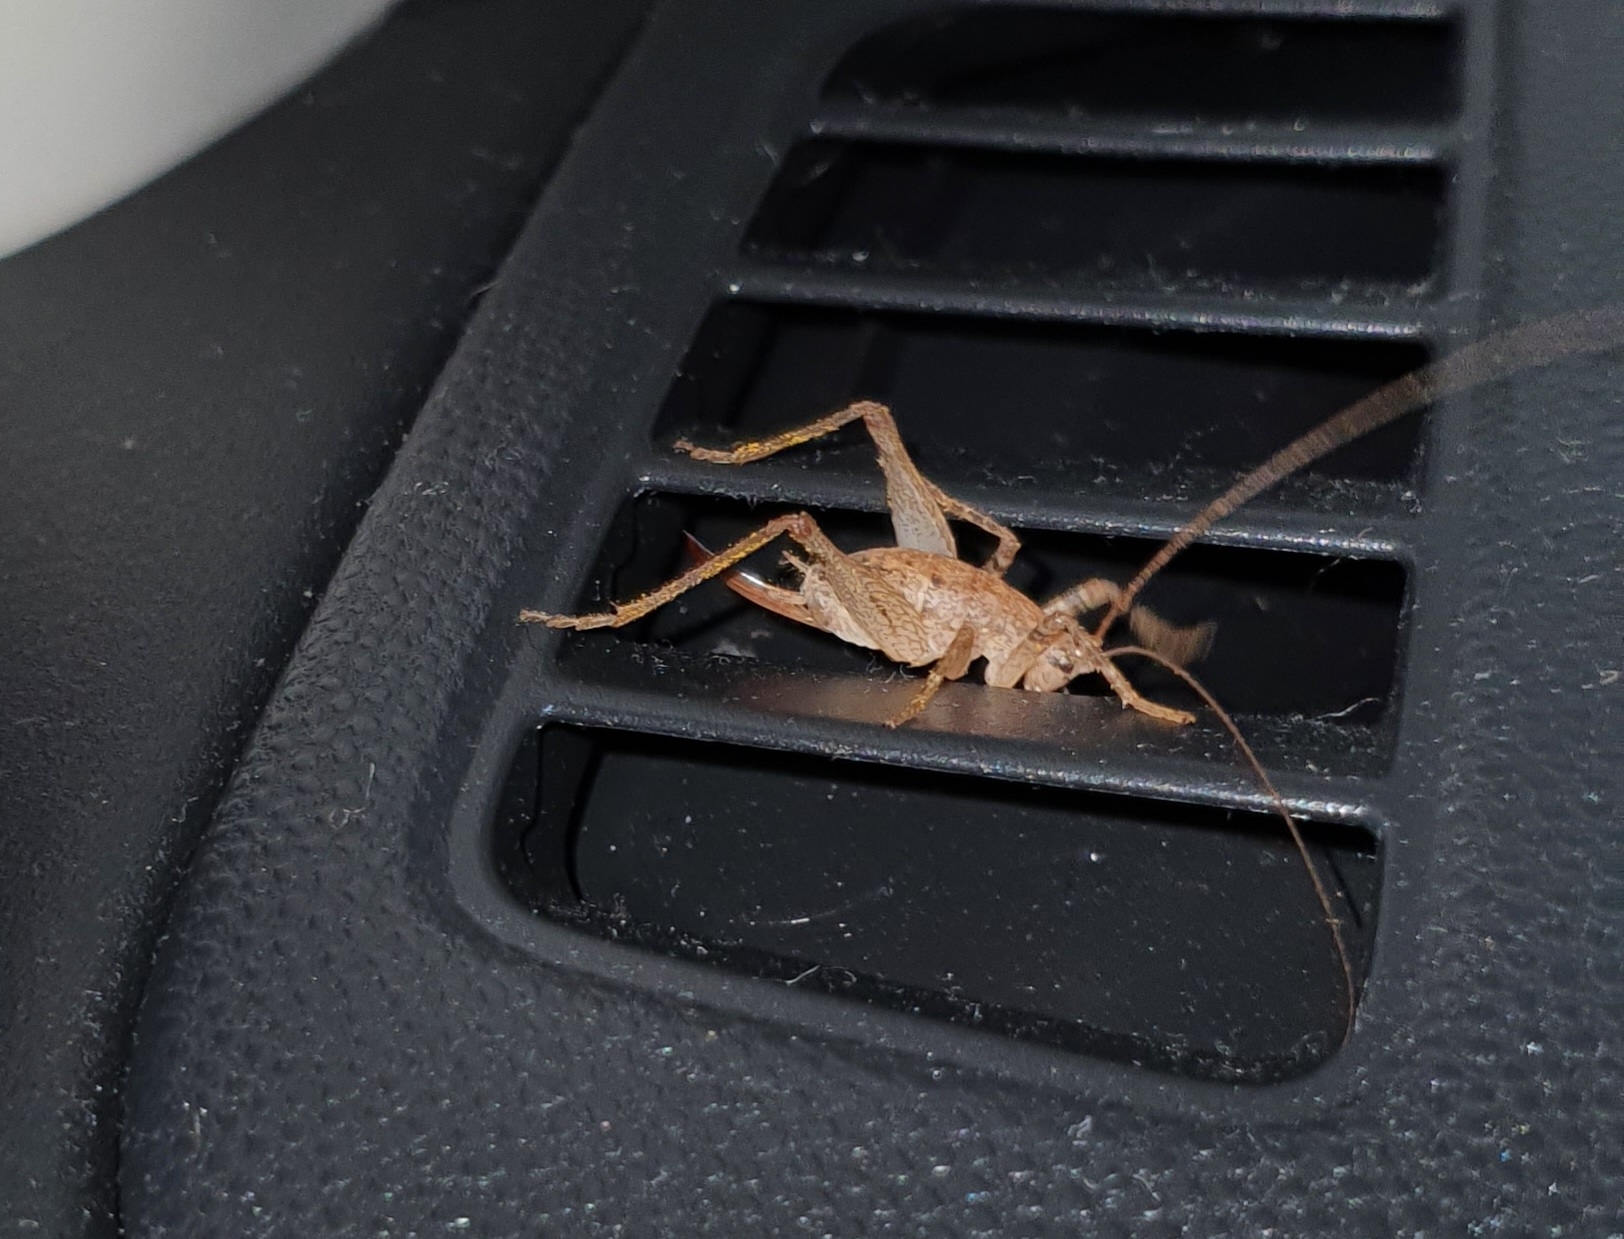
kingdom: Animalia
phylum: Arthropoda
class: Insecta
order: Orthoptera
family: Rhaphidophoridae
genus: Isoplectron
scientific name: Isoplectron armatum
